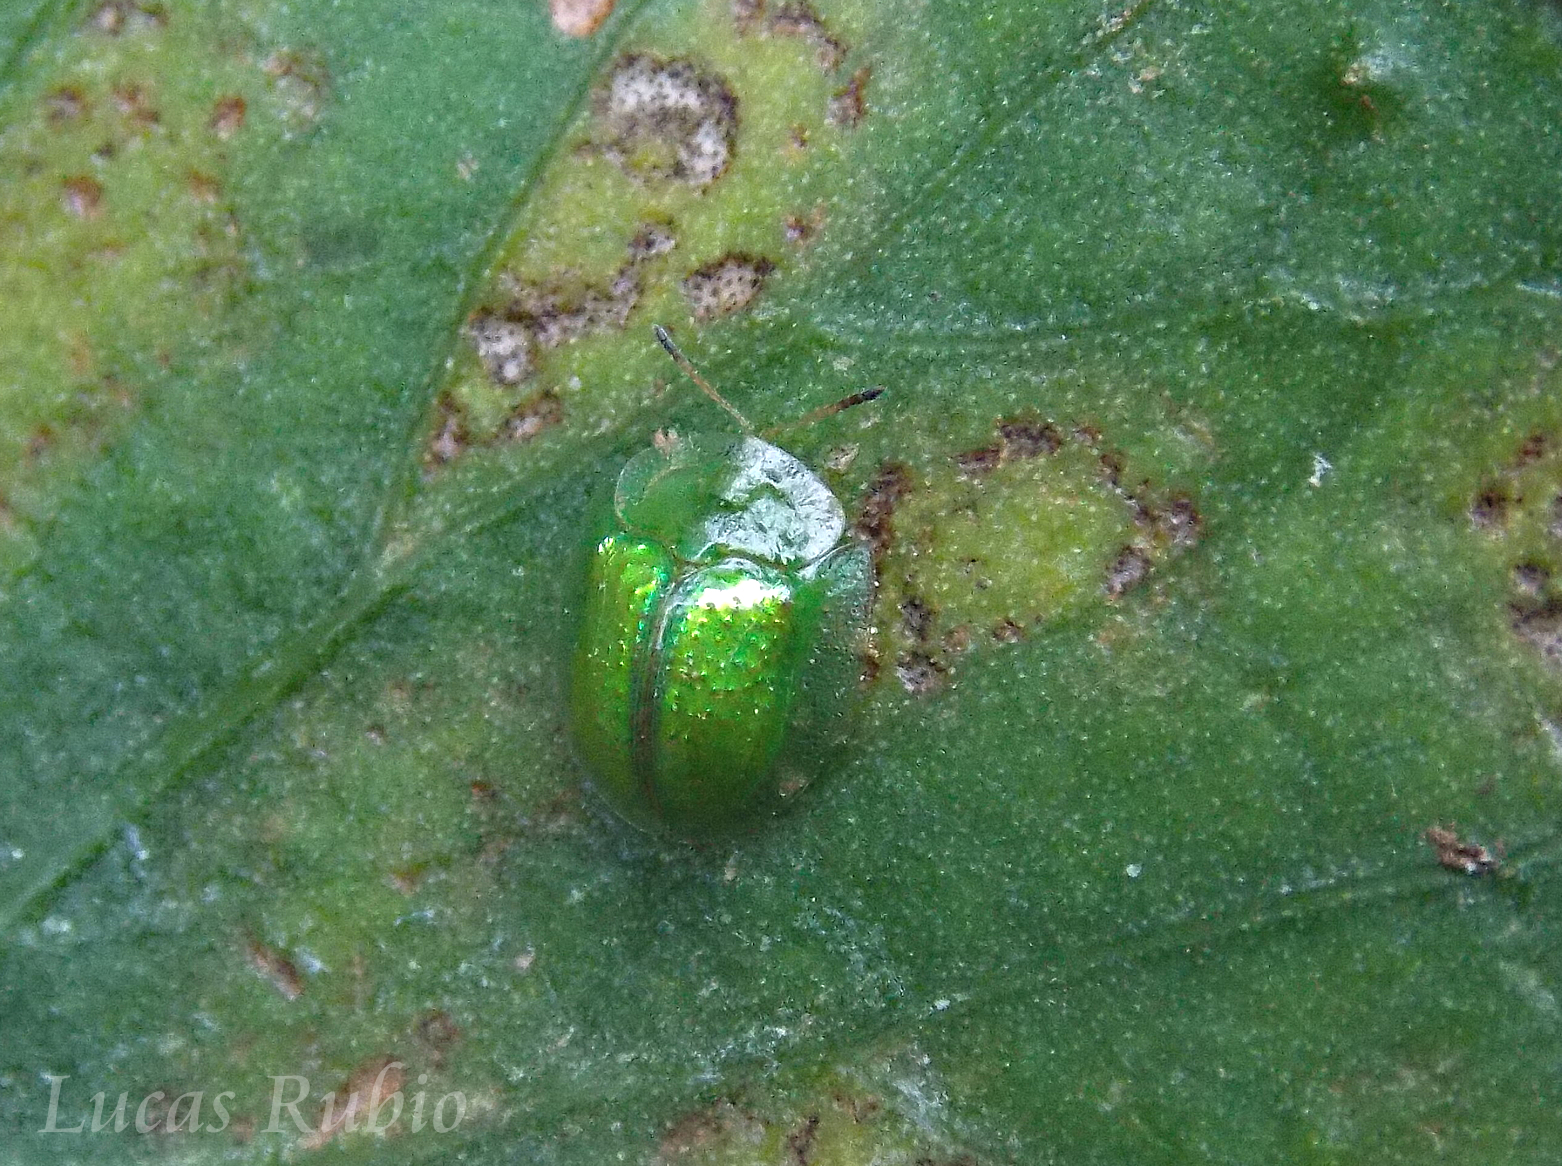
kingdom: Animalia
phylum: Arthropoda
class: Insecta
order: Coleoptera
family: Chrysomelidae
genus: Plagiometriona
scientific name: Plagiometriona herbea
